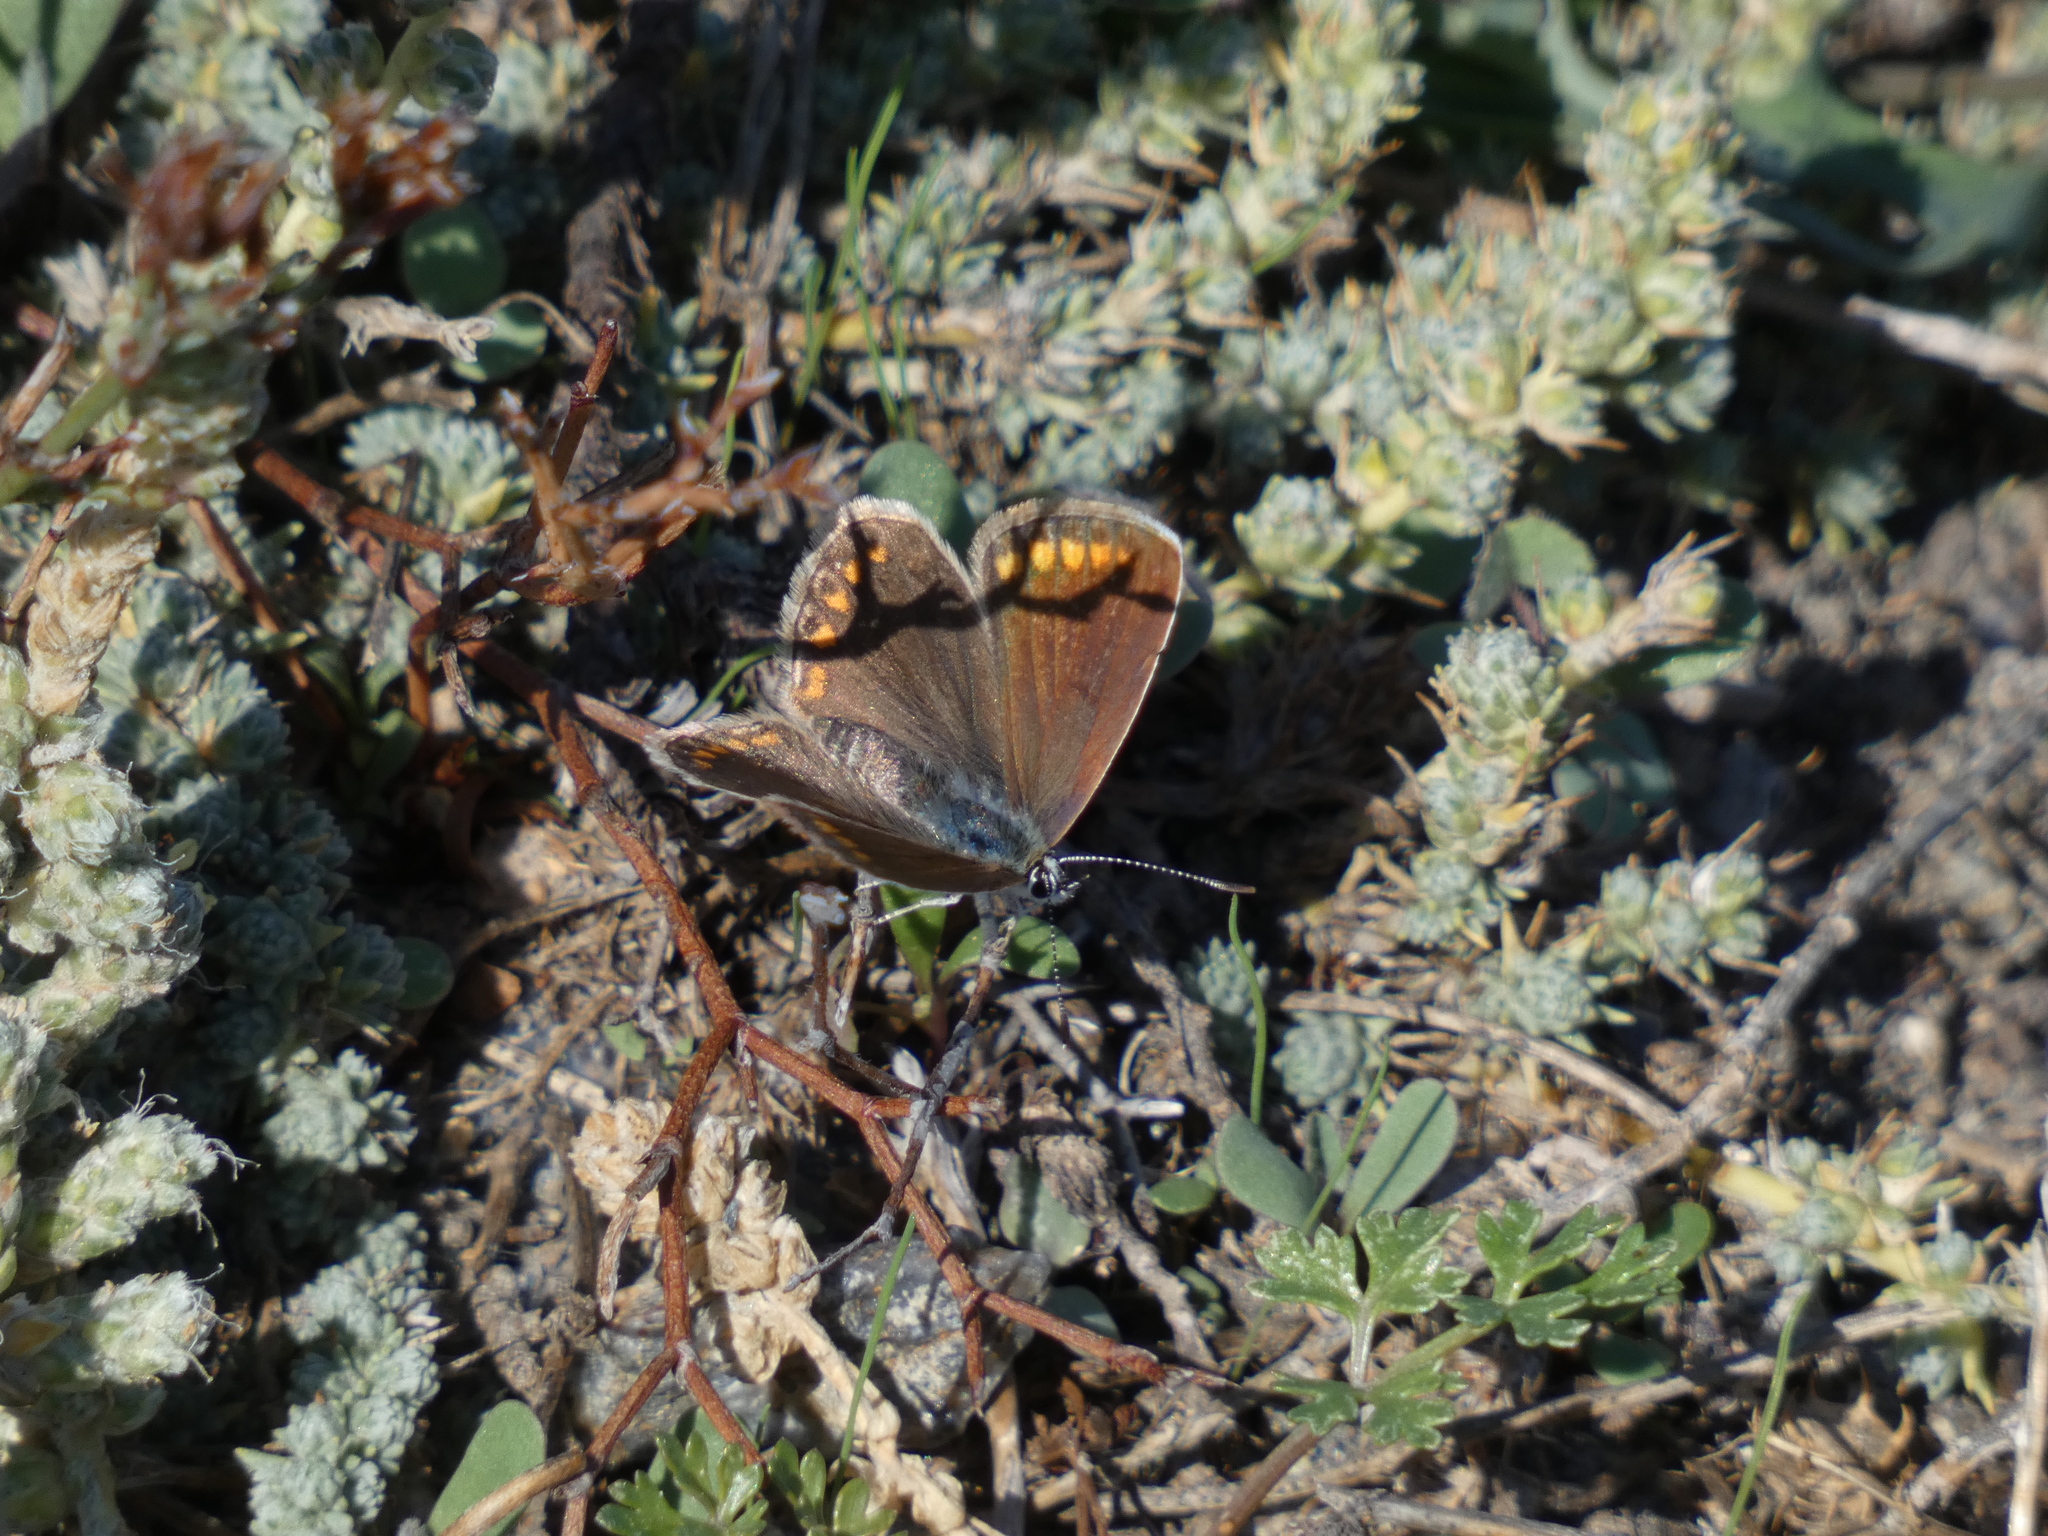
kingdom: Animalia
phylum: Arthropoda
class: Insecta
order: Lepidoptera
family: Lycaenidae
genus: Polyommatus
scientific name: Polyommatus icarus
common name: Common blue
